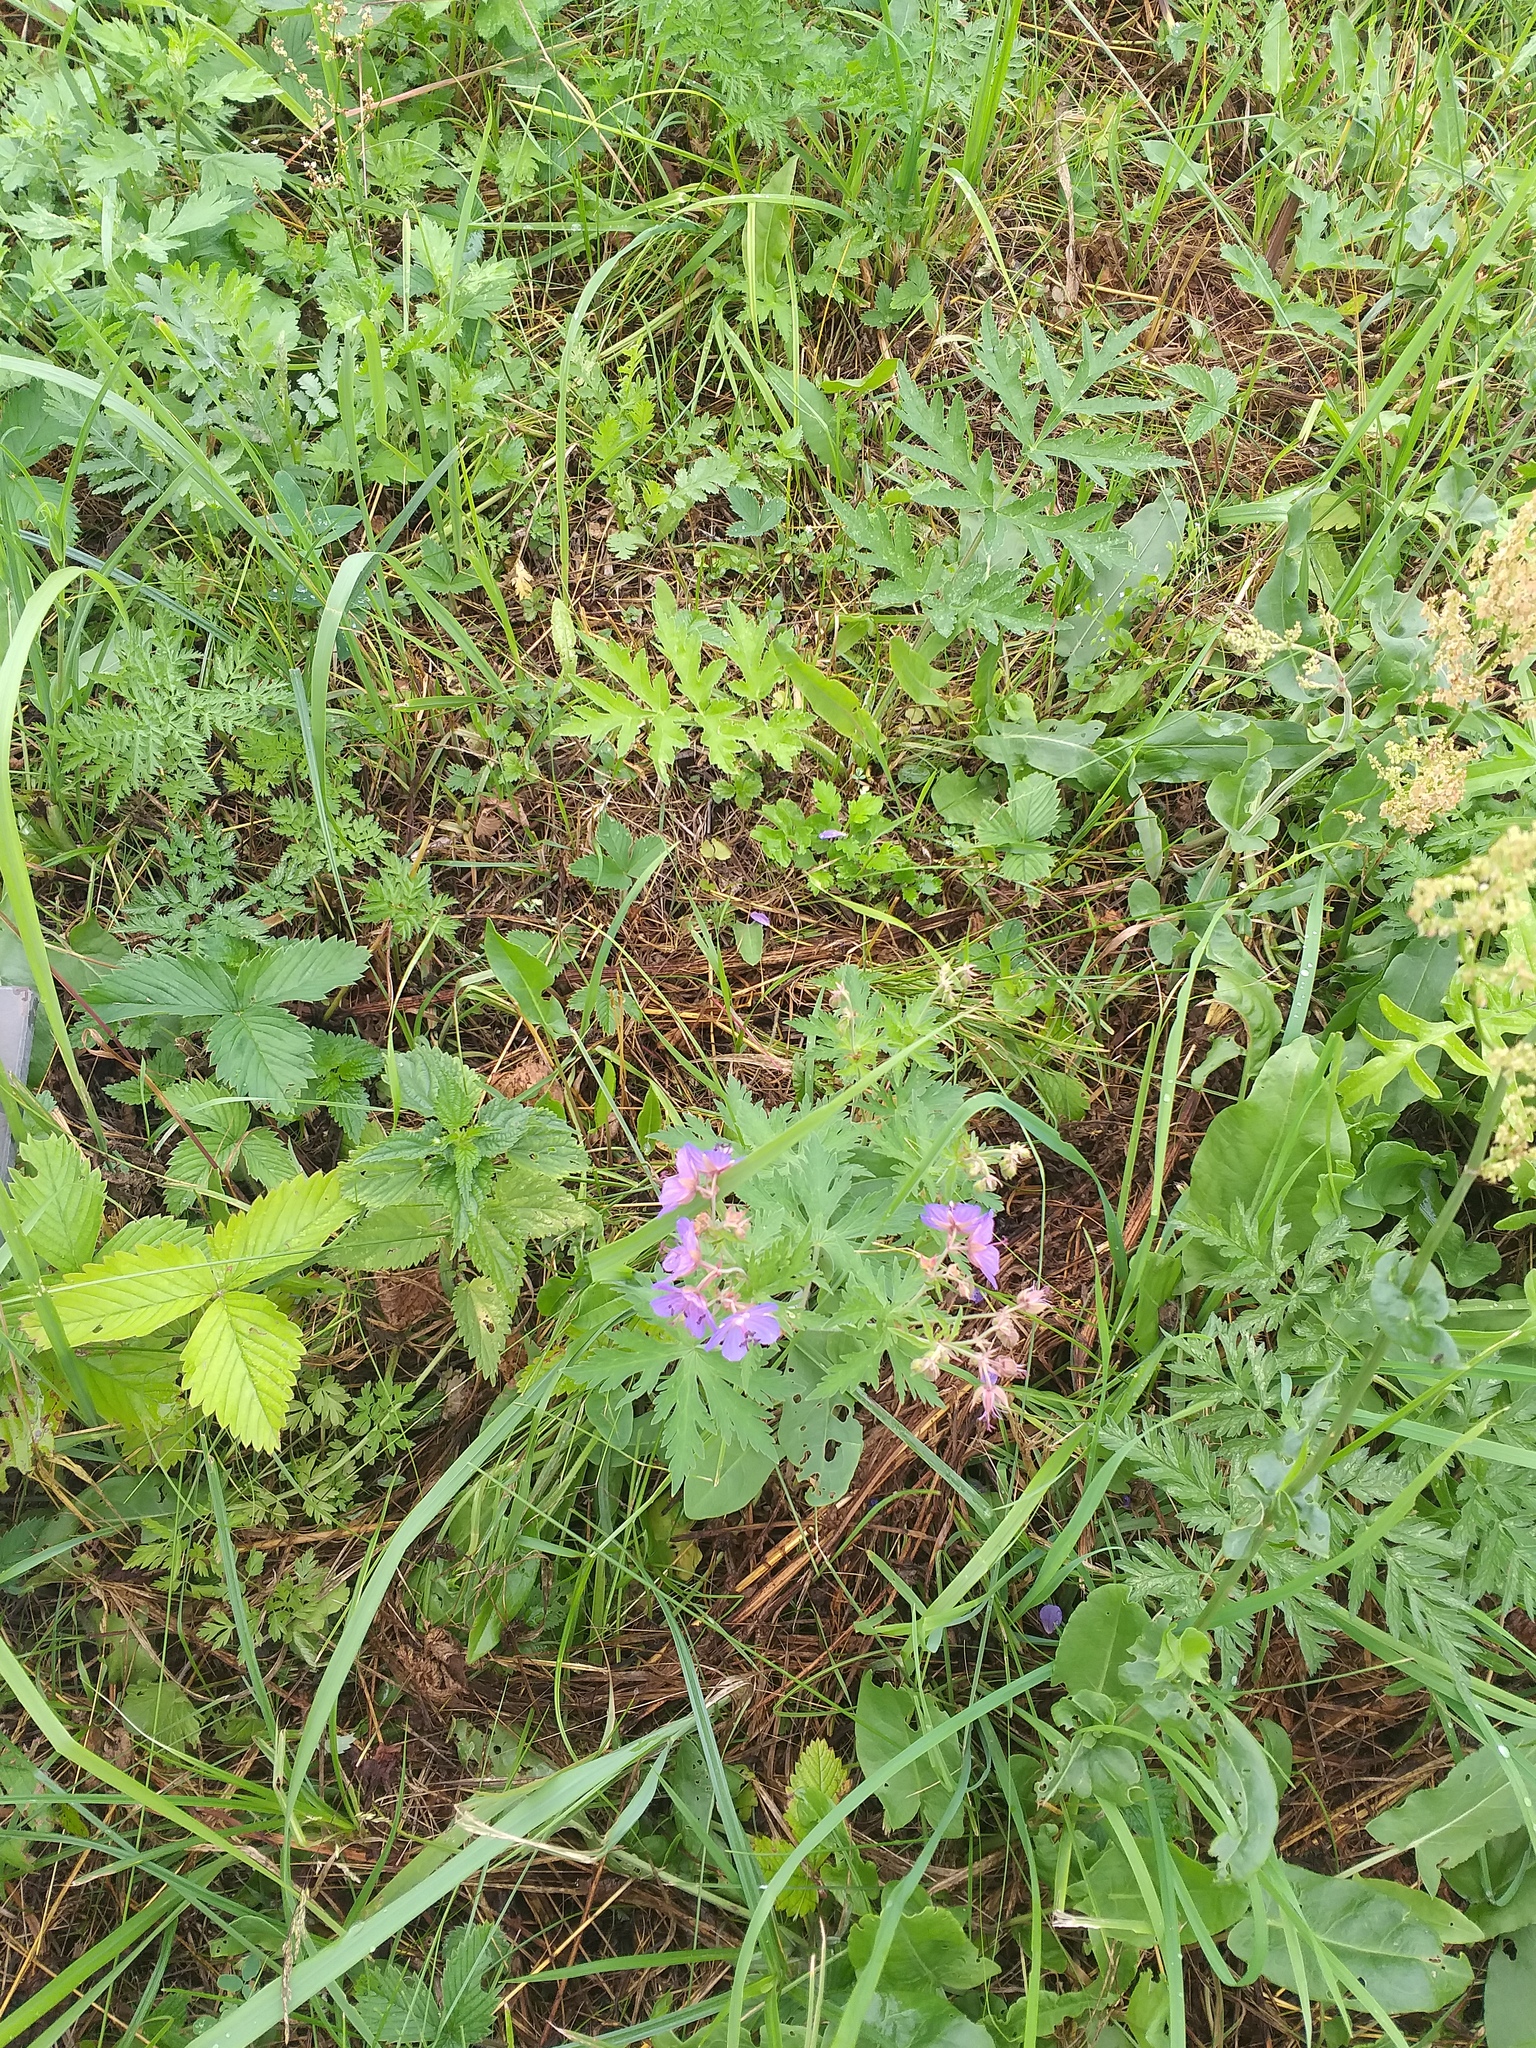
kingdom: Plantae
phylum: Tracheophyta
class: Magnoliopsida
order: Geraniales
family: Geraniaceae
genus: Geranium
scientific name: Geranium pratense
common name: Meadow crane's-bill
